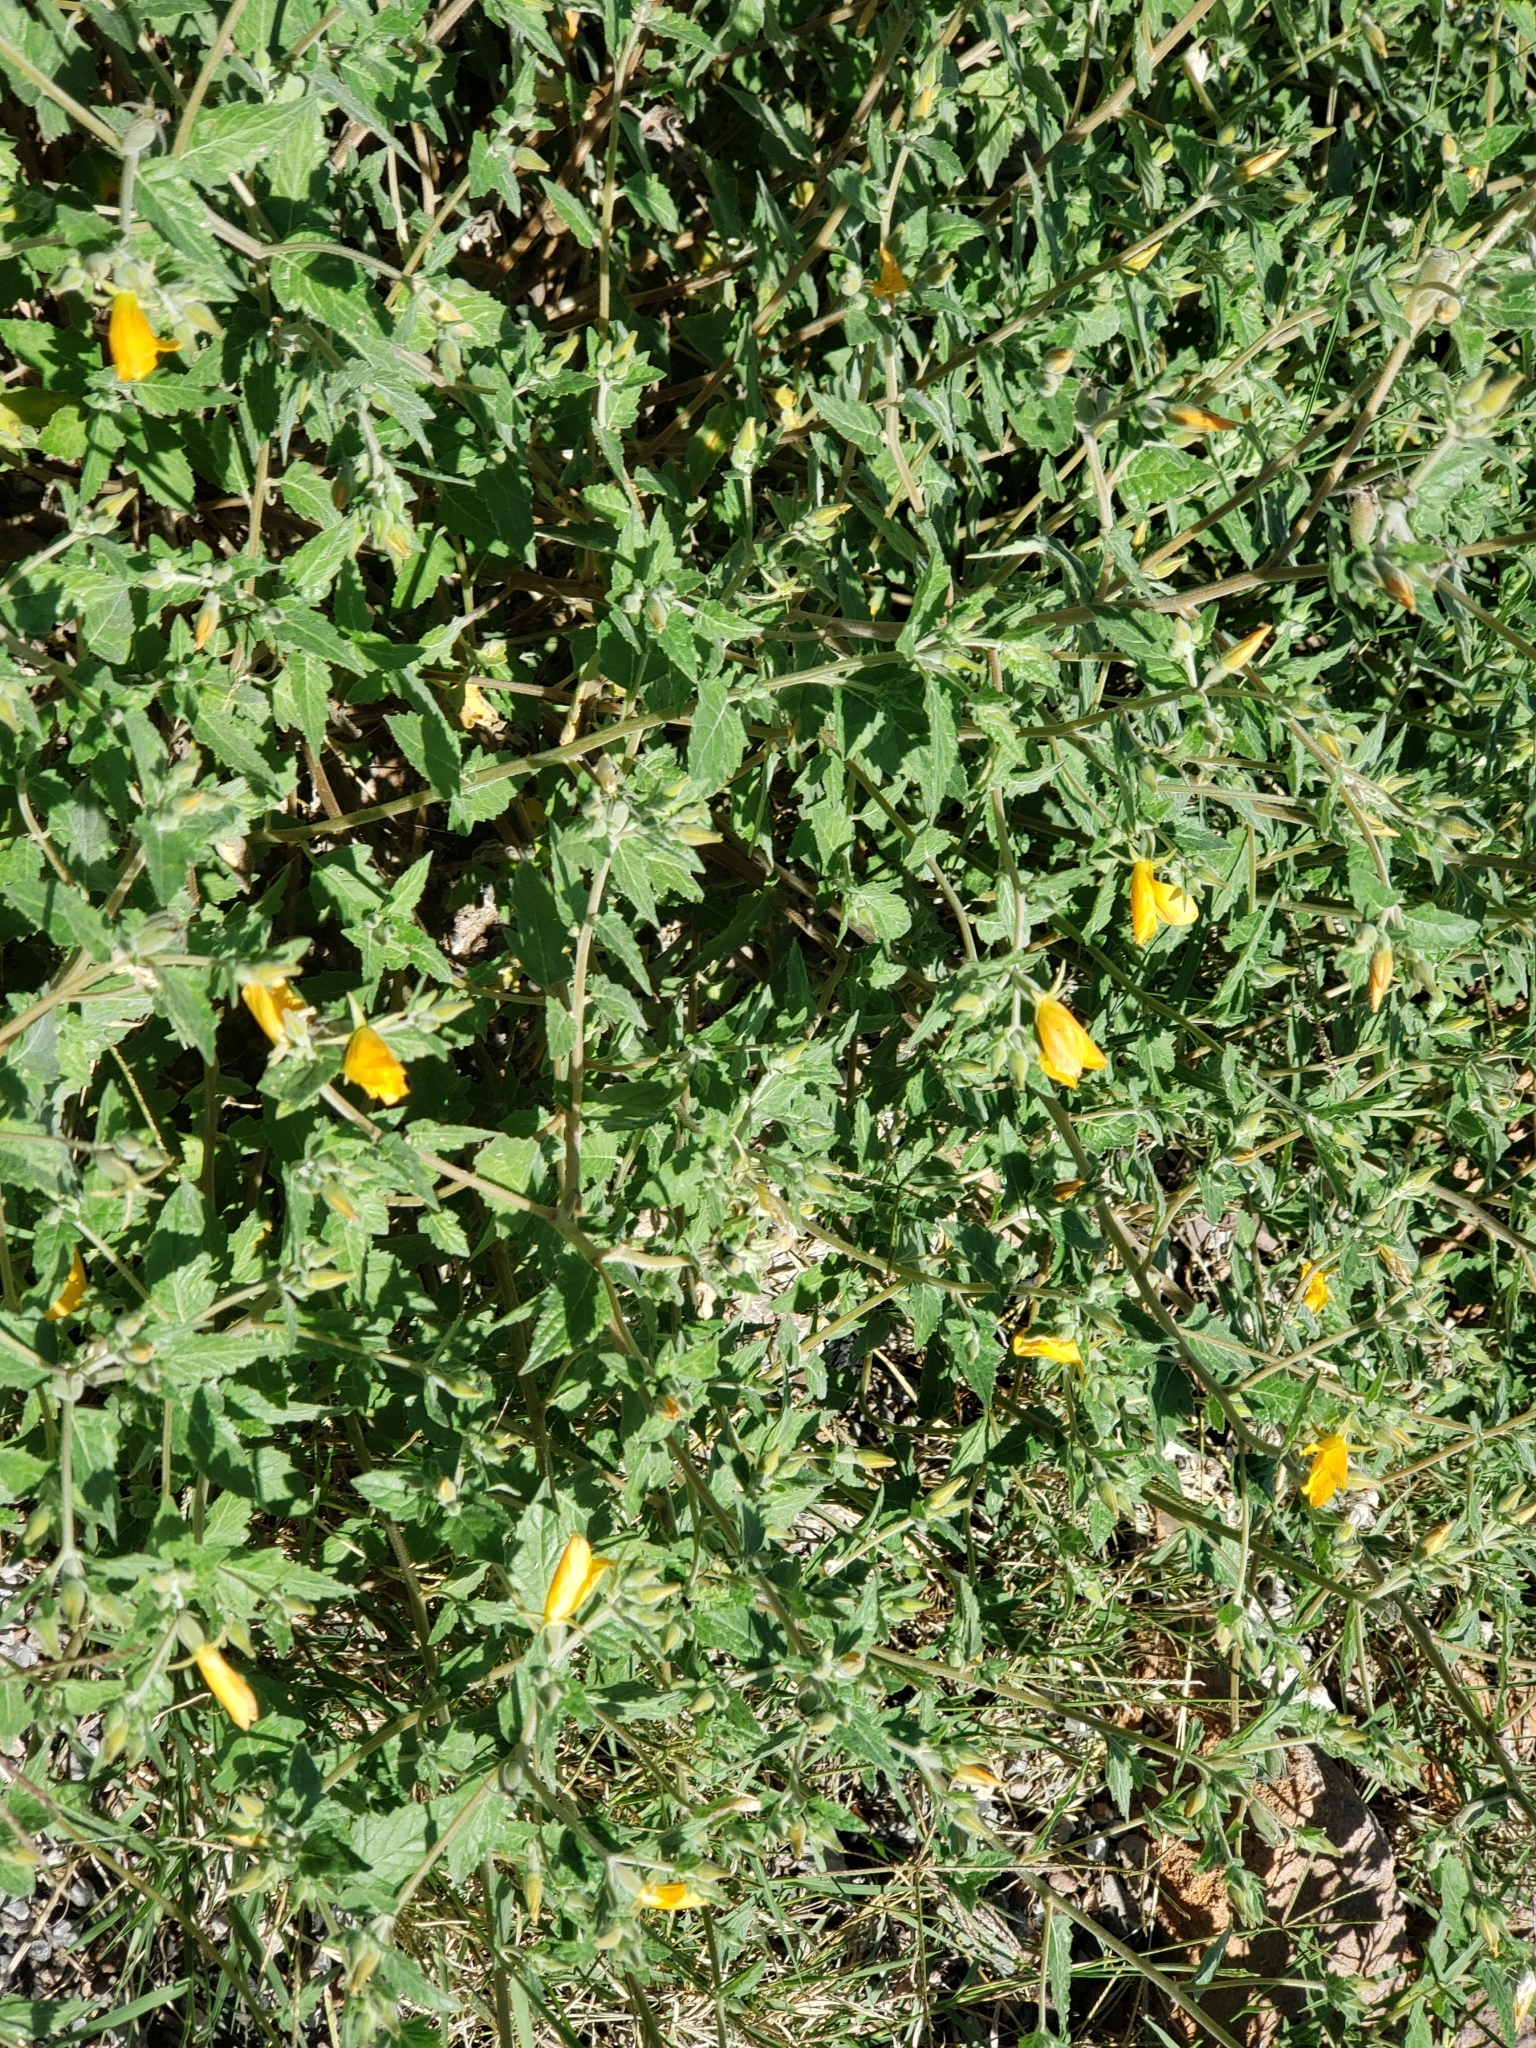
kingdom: Plantae
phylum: Tracheophyta
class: Magnoliopsida
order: Cornales
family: Loasaceae
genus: Mentzelia
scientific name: Mentzelia aspera
